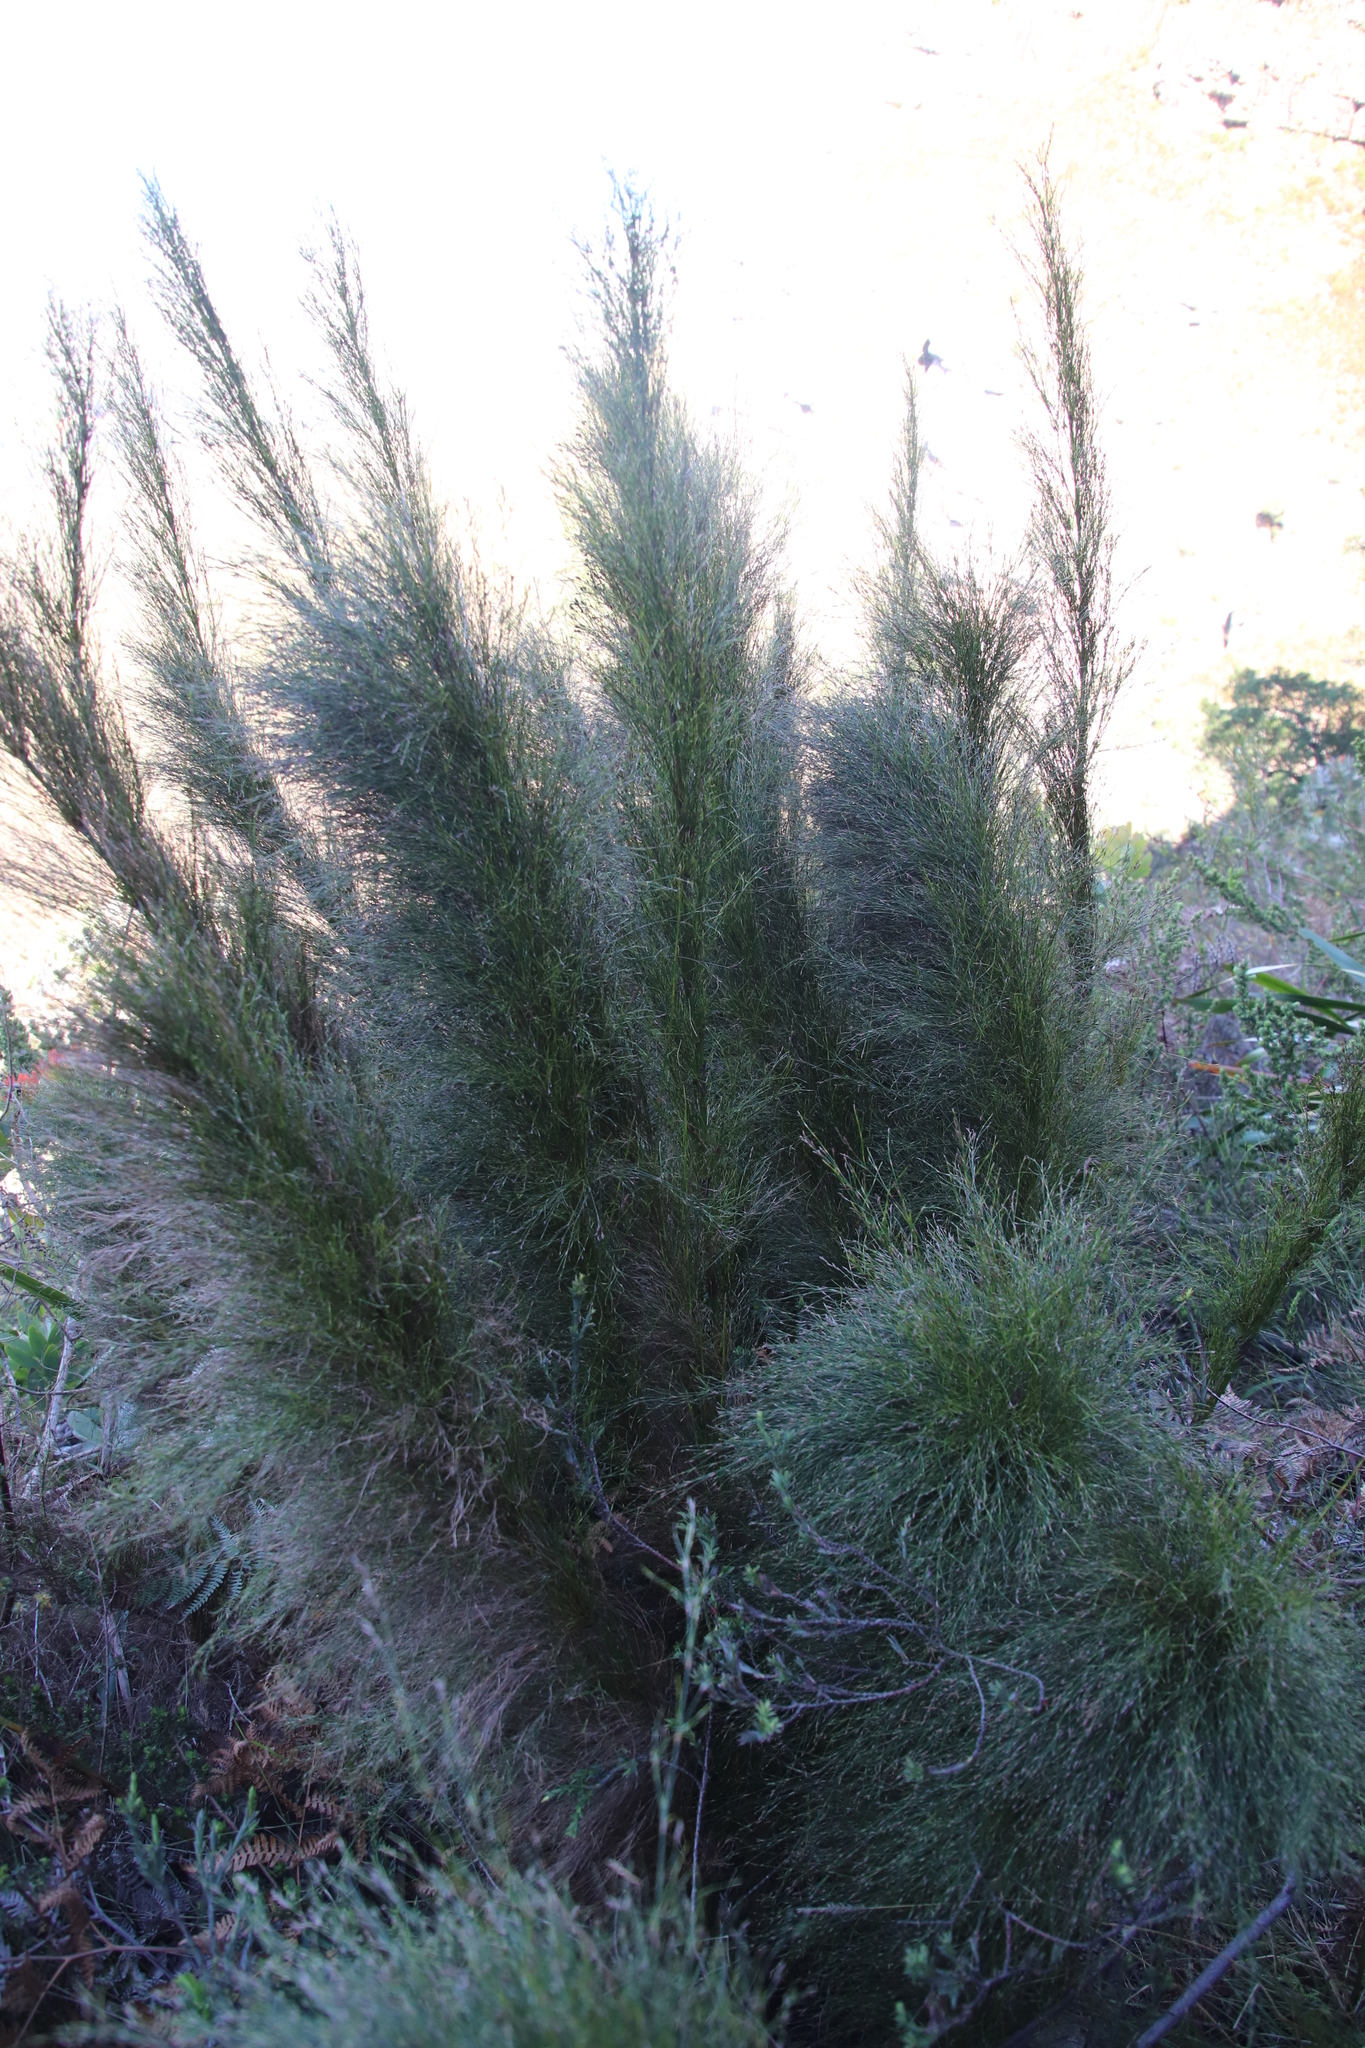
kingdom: Plantae
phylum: Tracheophyta
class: Liliopsida
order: Poales
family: Restionaceae
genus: Restio
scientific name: Restio subverticillatus
